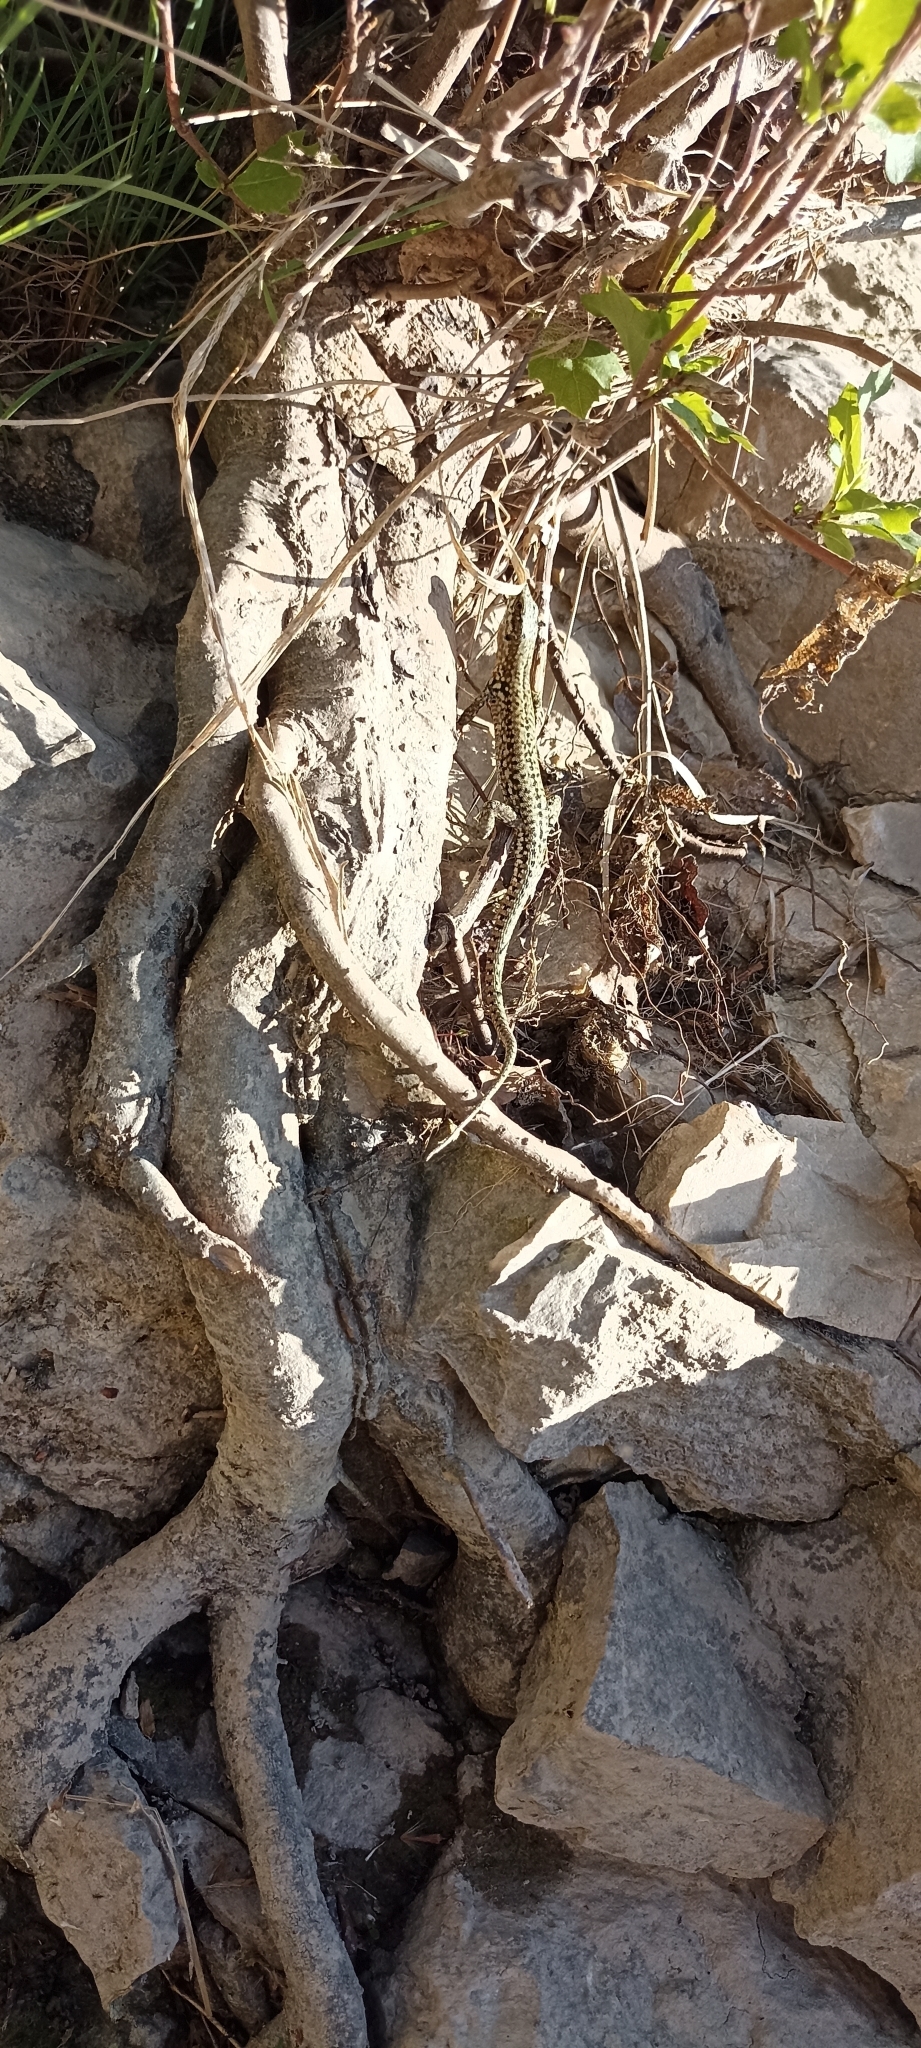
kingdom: Animalia
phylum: Chordata
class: Squamata
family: Lacertidae
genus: Podarcis
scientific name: Podarcis muralis
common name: Common wall lizard
